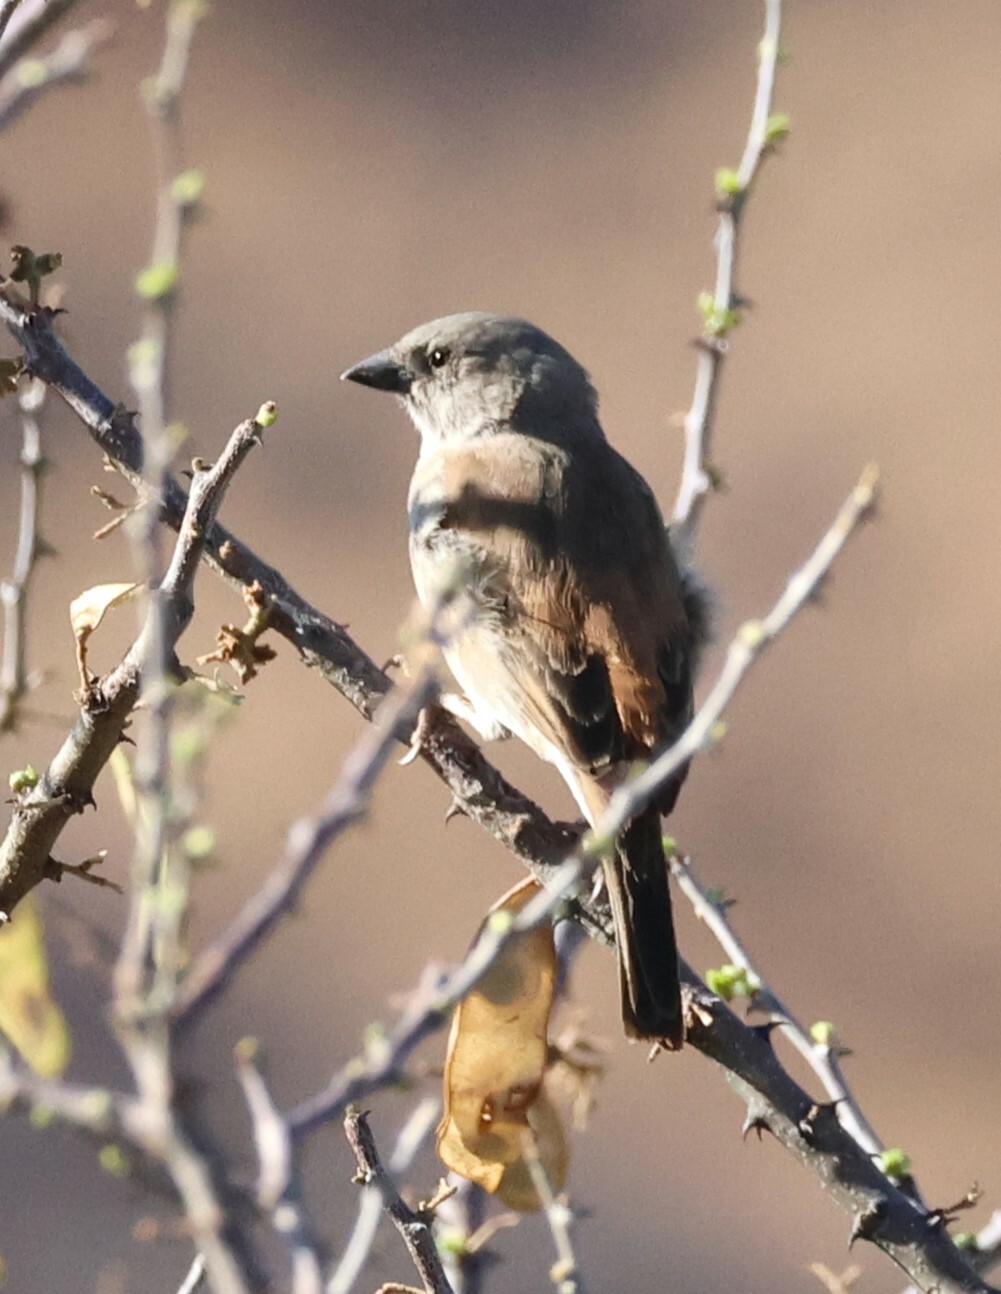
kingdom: Animalia
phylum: Chordata
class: Aves
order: Passeriformes
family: Passeridae
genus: Passer
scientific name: Passer diffusus
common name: Southern grey-headed sparrow
